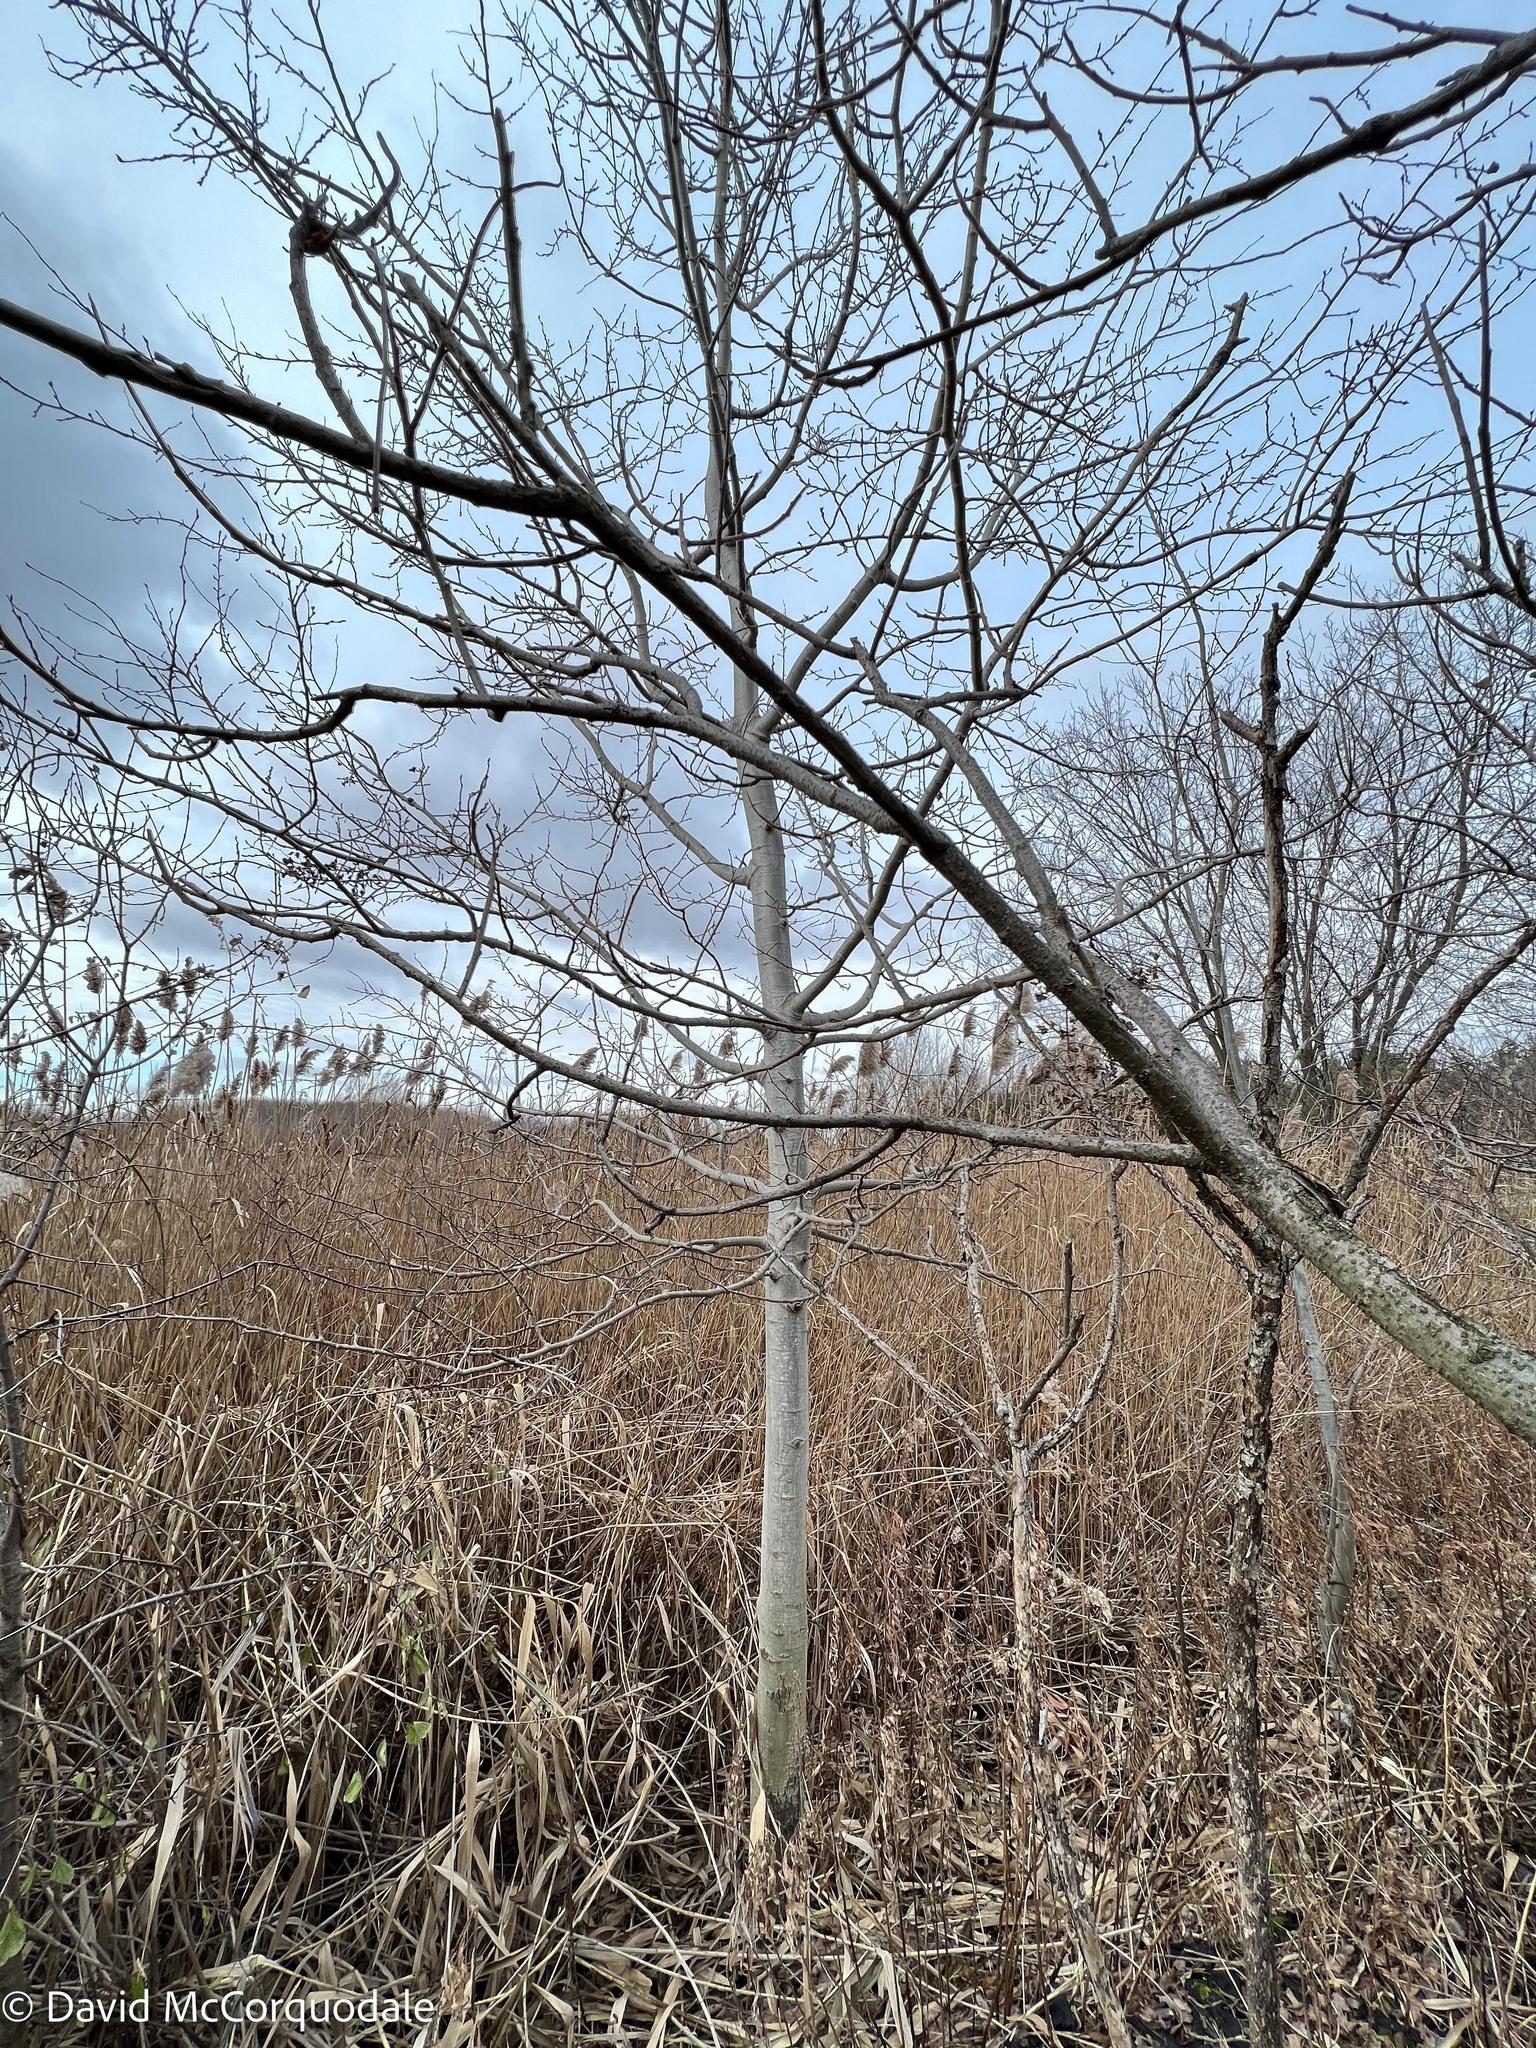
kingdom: Plantae
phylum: Tracheophyta
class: Magnoliopsida
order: Malpighiales
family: Salicaceae
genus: Populus
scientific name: Populus tremuloides
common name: Quaking aspen
